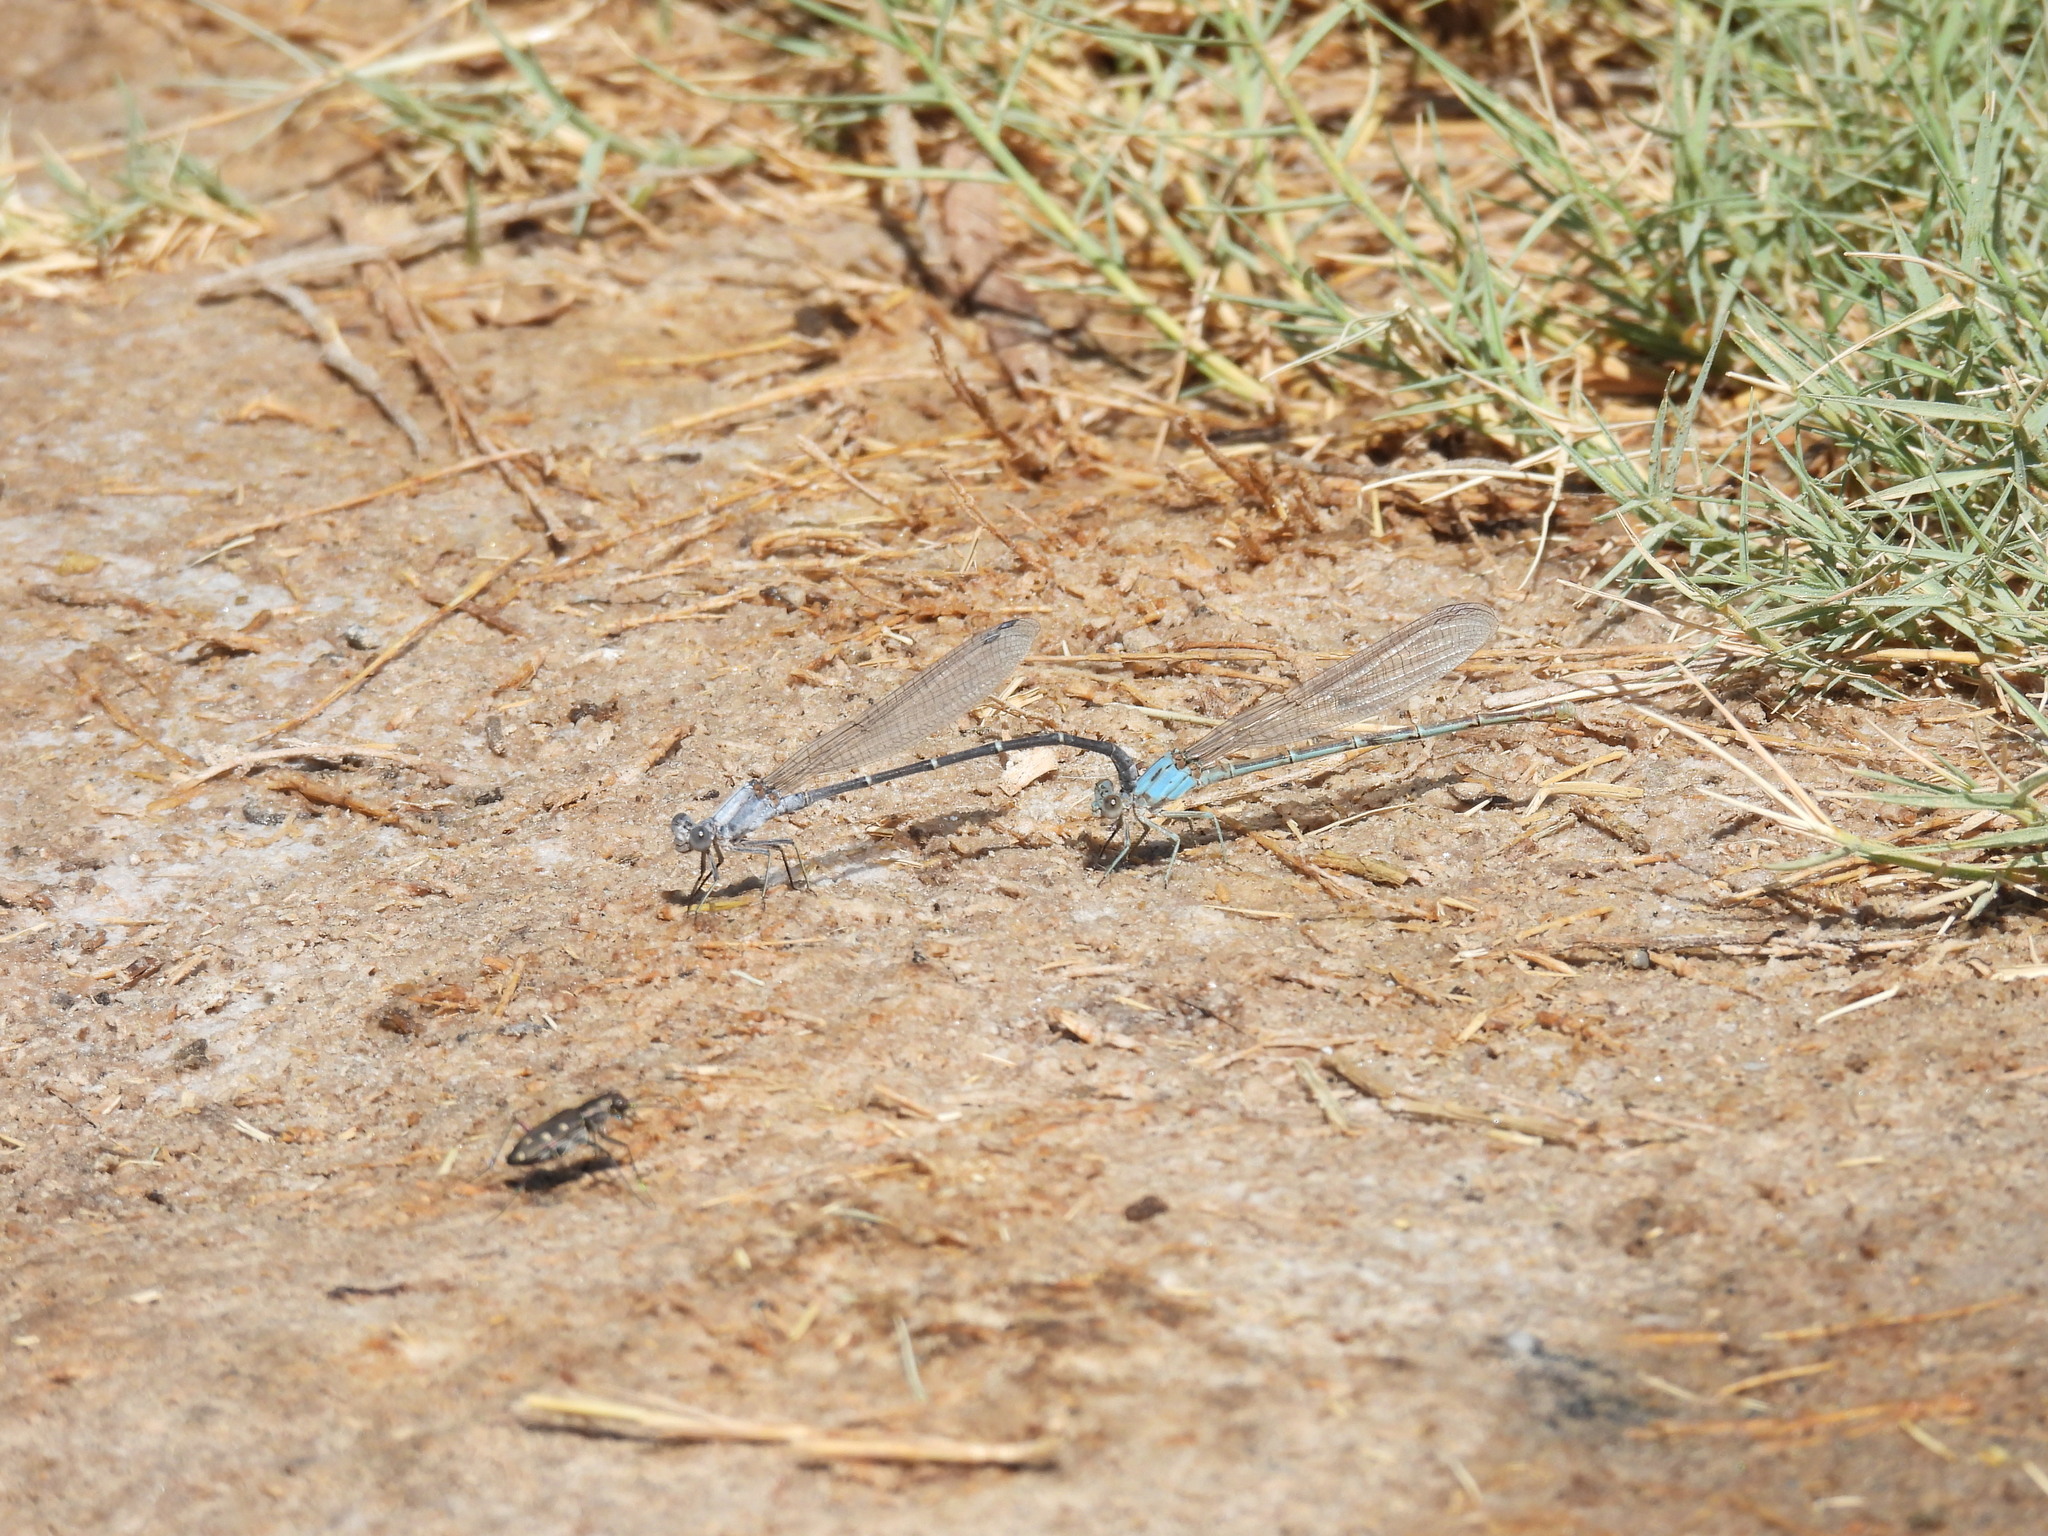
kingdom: Animalia
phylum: Arthropoda
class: Insecta
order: Odonata
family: Coenagrionidae
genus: Argia
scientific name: Argia moesta
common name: Powdered dancer
